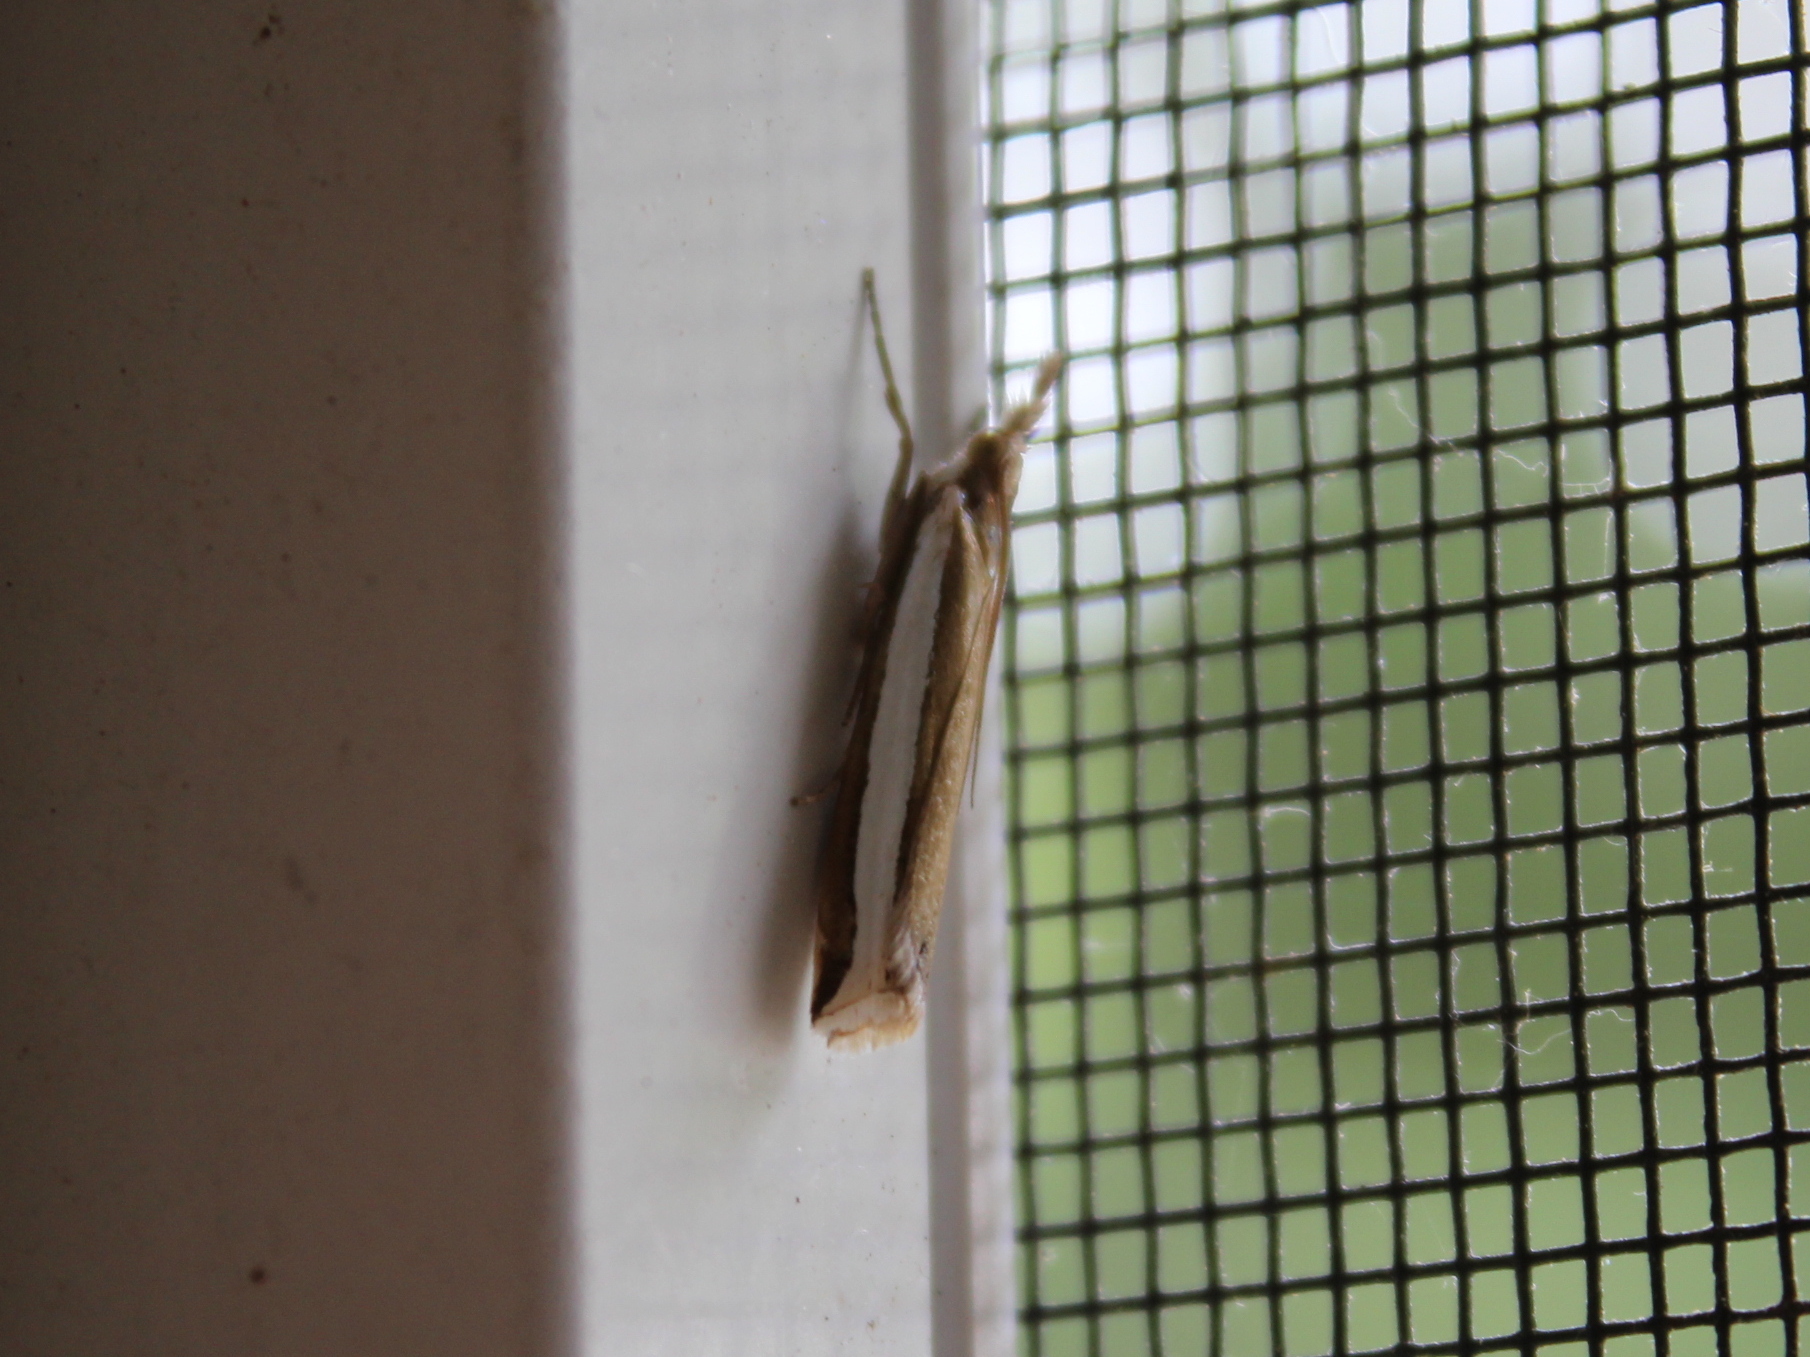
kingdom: Animalia
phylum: Arthropoda
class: Insecta
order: Lepidoptera
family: Crambidae
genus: Crambus
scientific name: Crambus unistriatellus
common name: Wide-stripe grass-veneer moth
